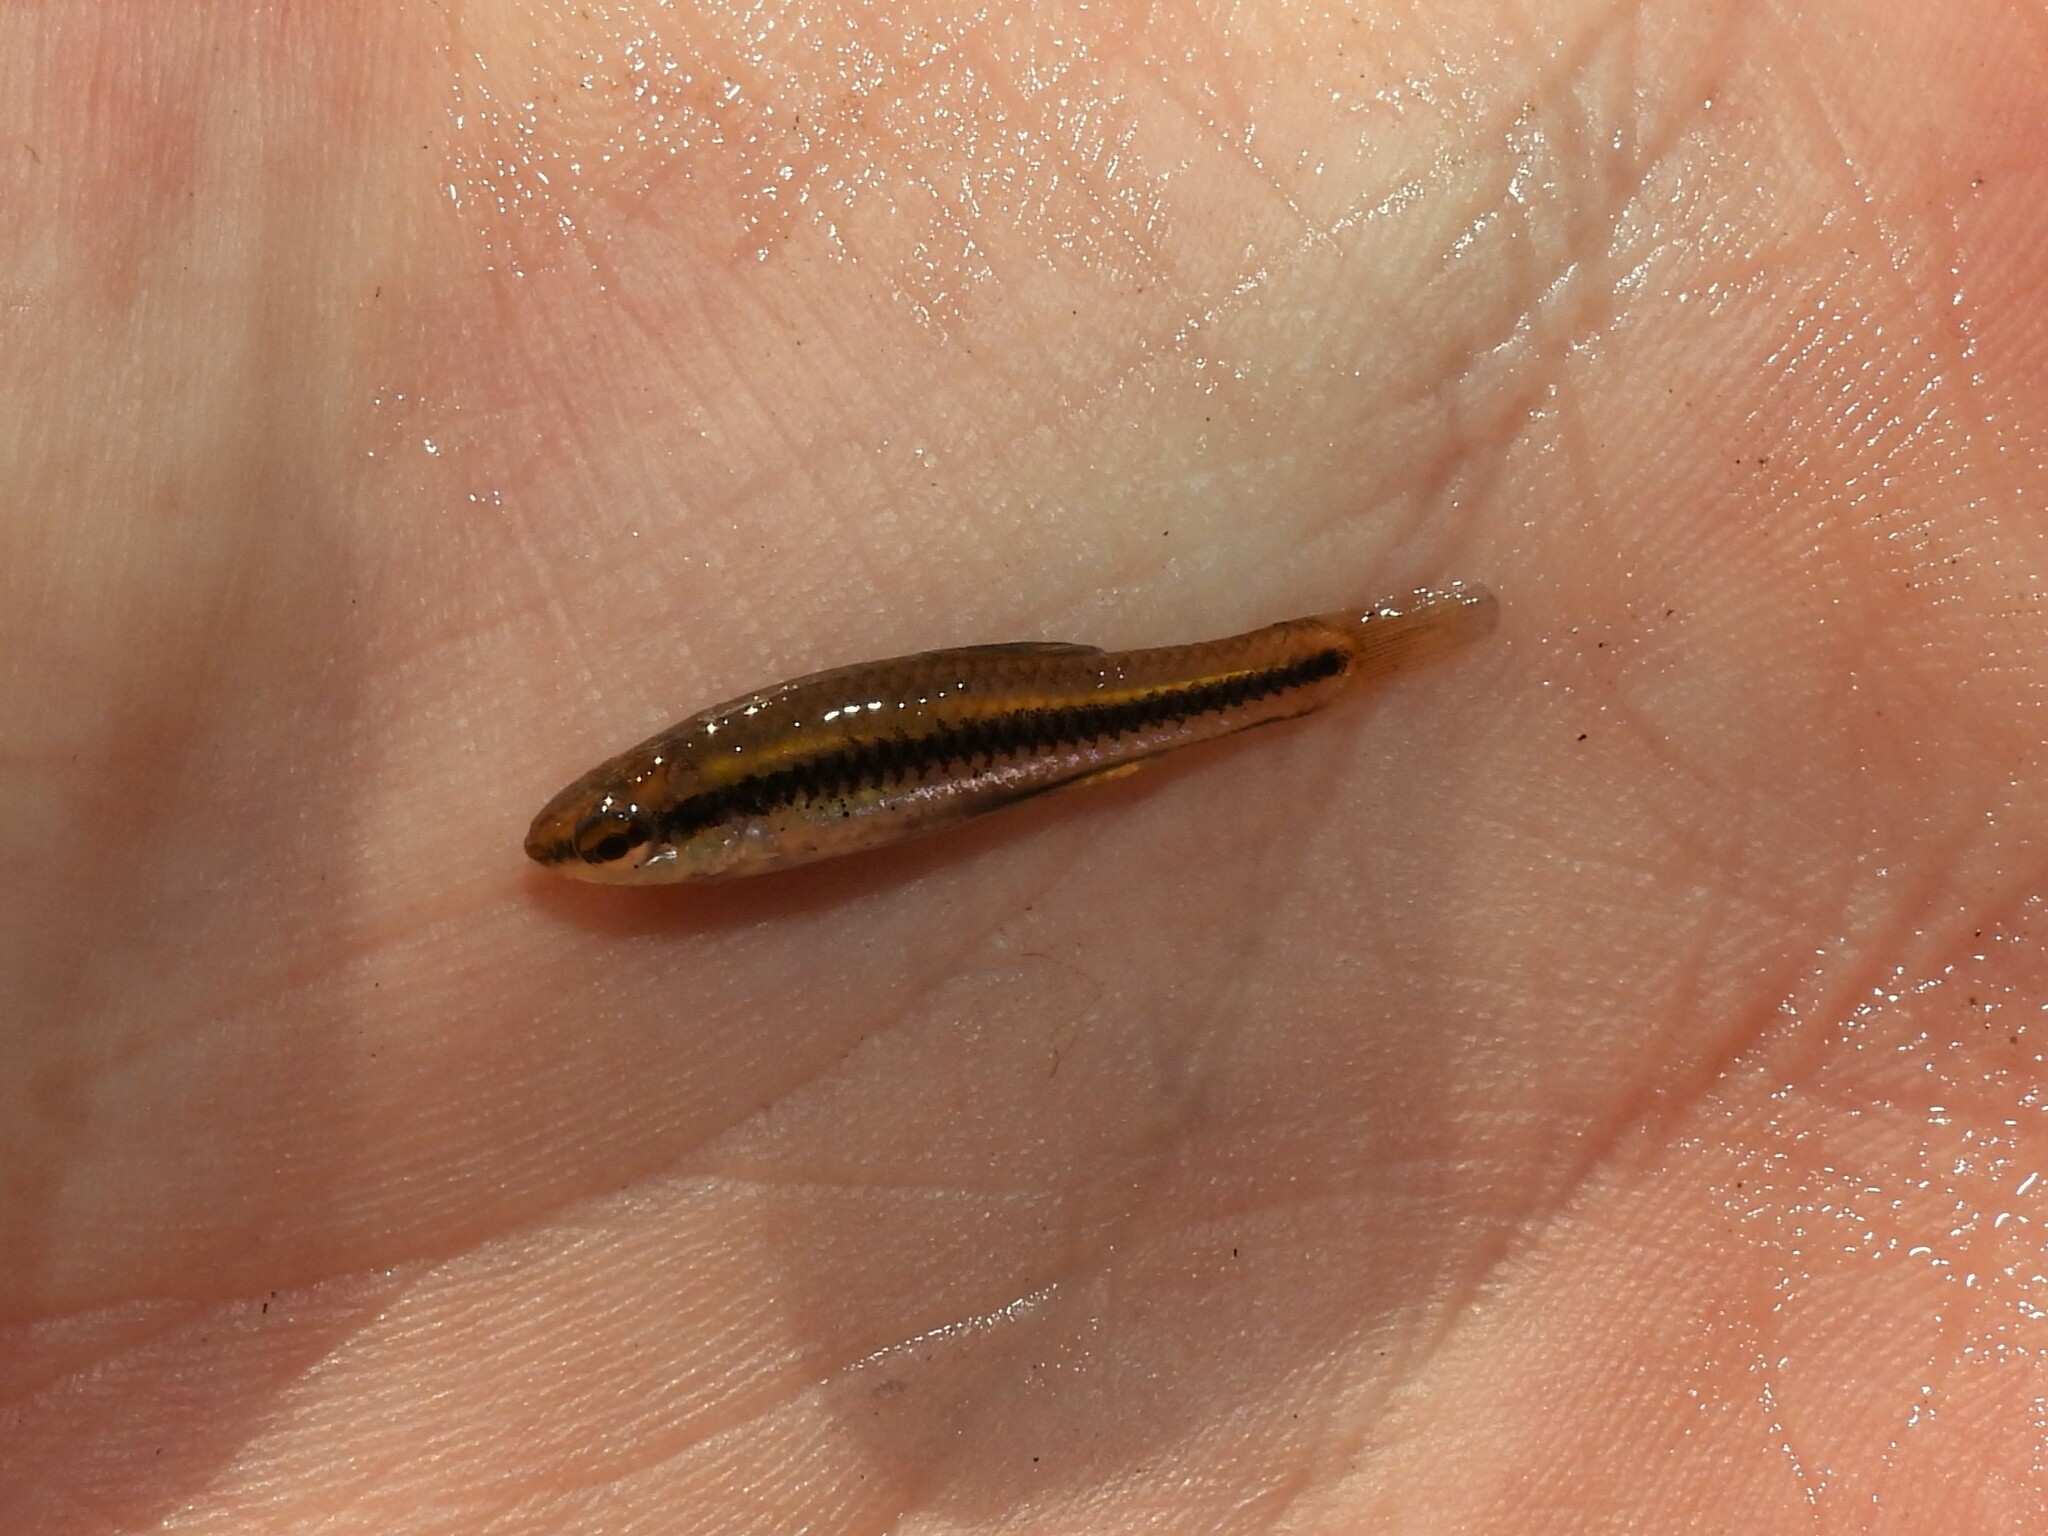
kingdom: Animalia
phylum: Chordata
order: Cyprinodontiformes
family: Fundulidae
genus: Lucania
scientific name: Lucania goodei
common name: Bluefin killifish
